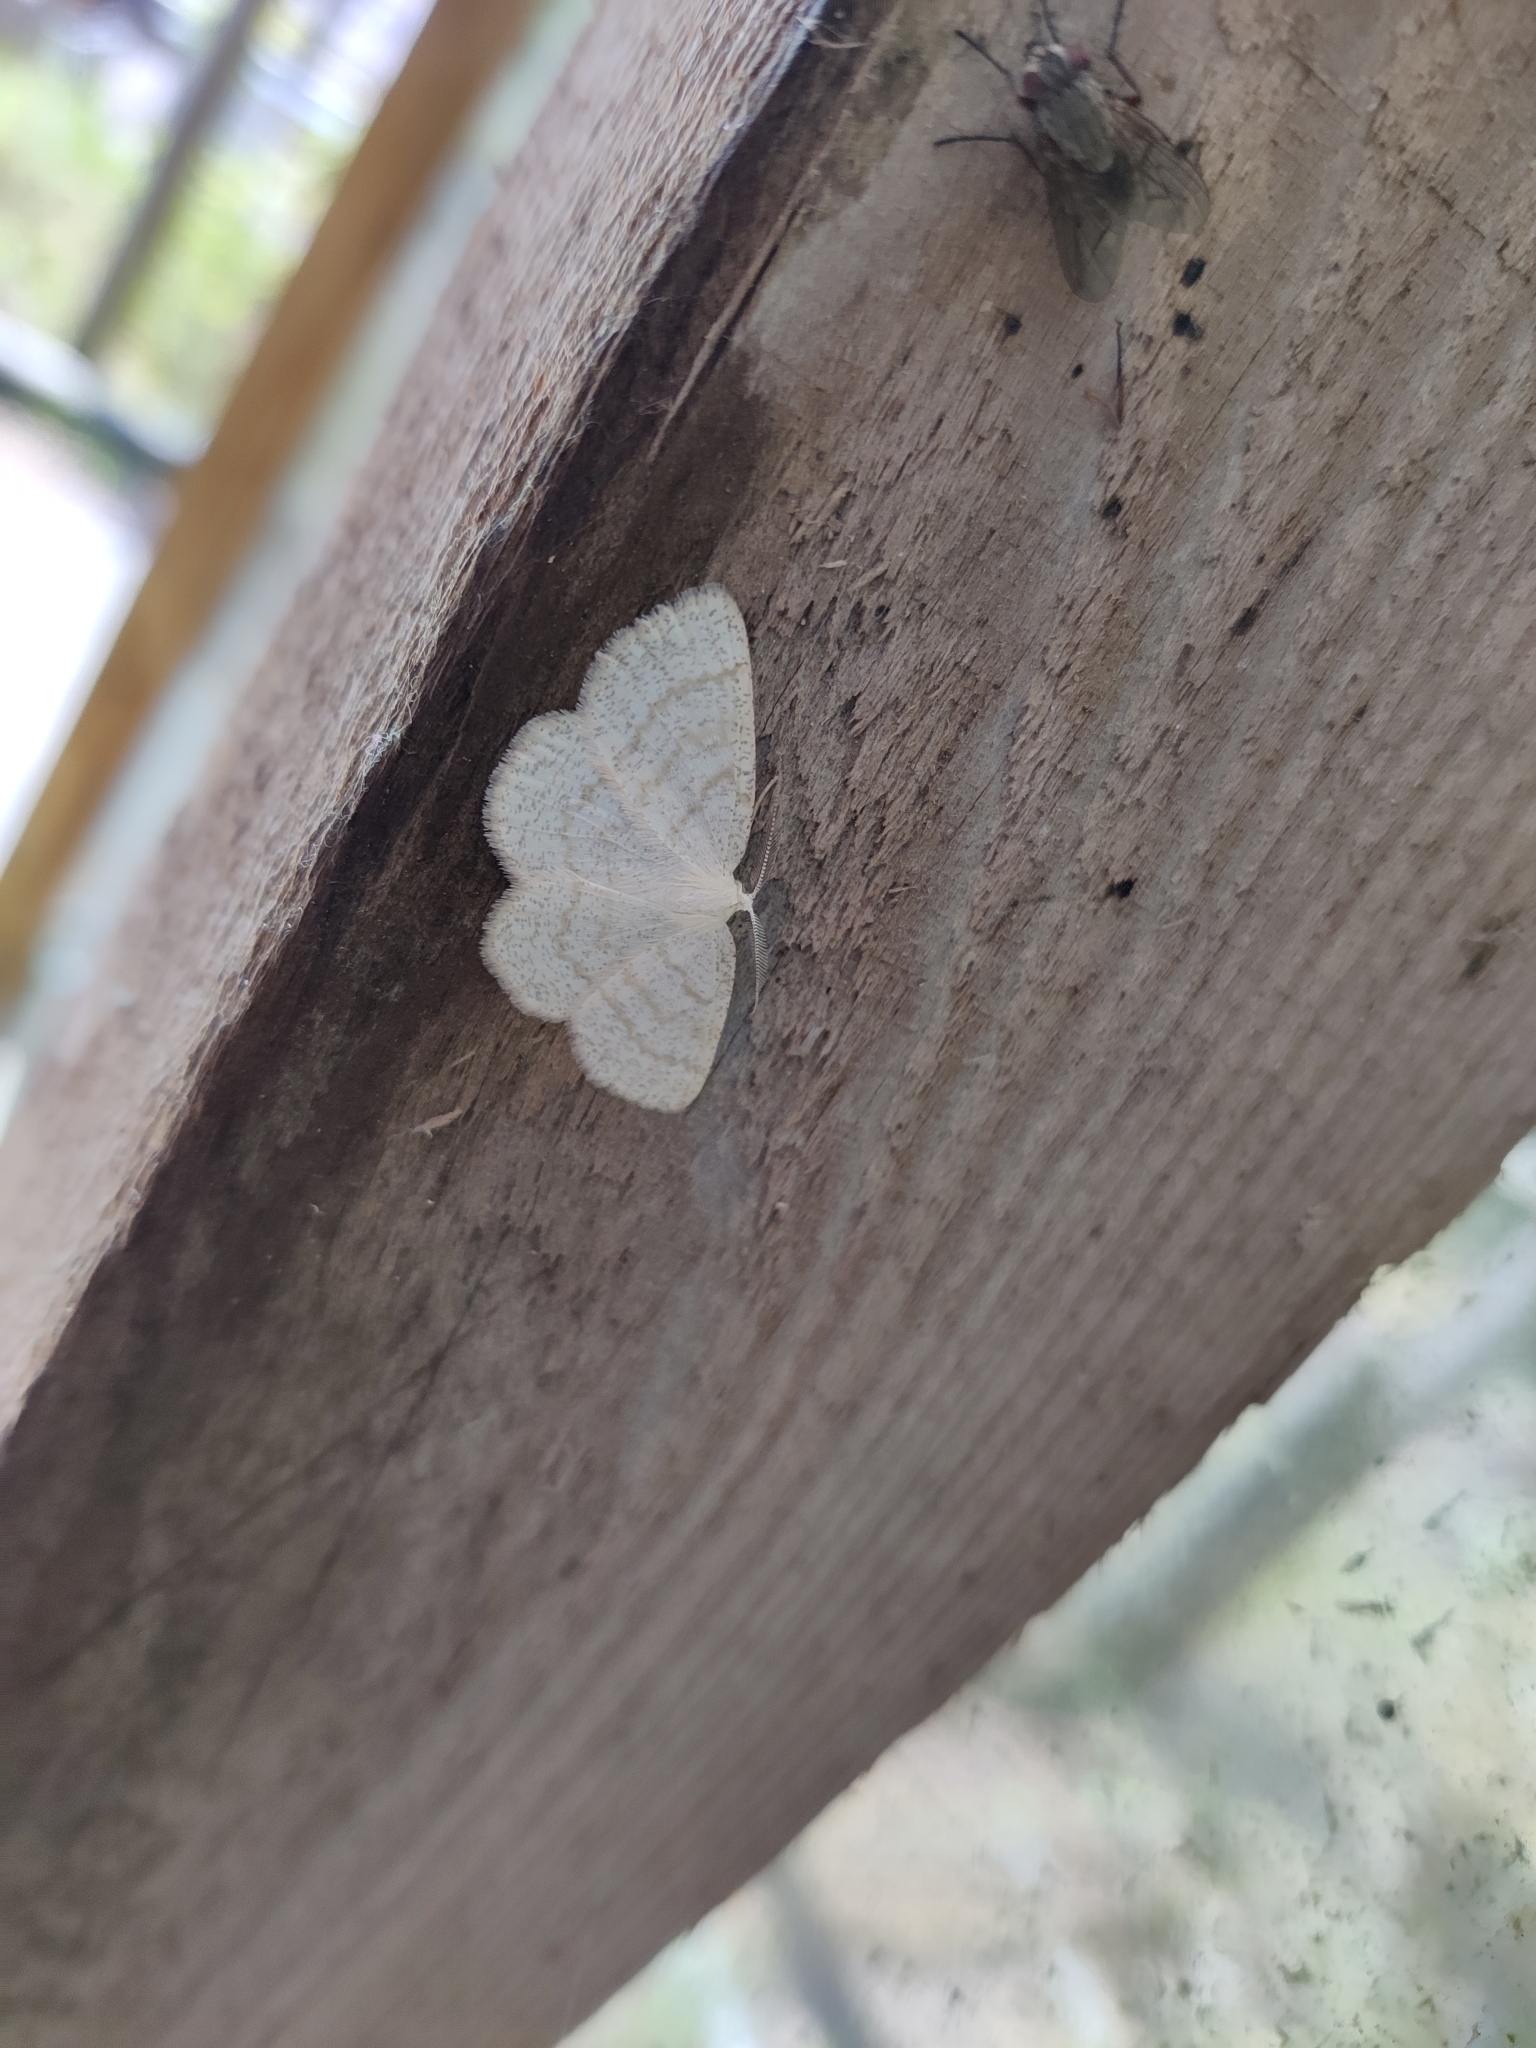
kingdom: Animalia
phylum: Arthropoda
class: Insecta
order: Lepidoptera
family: Geometridae
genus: Cabera
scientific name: Cabera exanthemata
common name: Common wave
